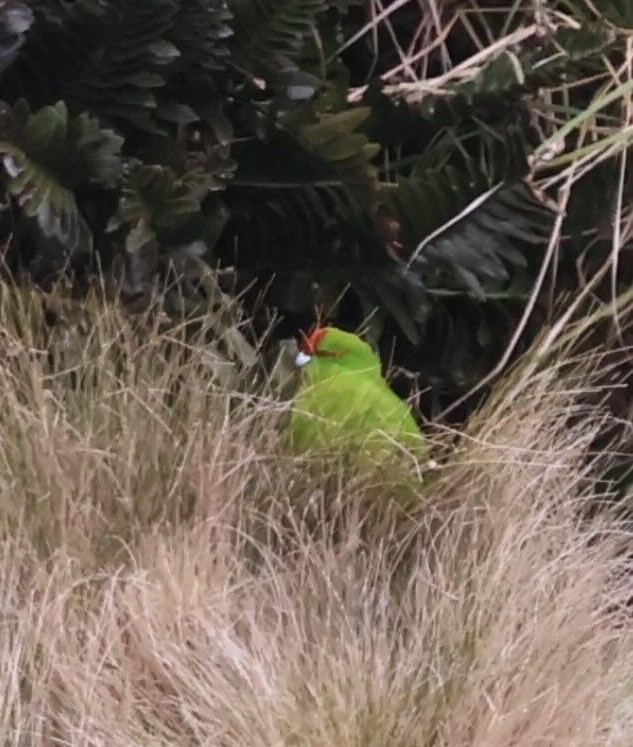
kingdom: Animalia
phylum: Chordata
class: Aves
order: Psittaciformes
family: Psittacidae
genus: Cyanoramphus
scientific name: Cyanoramphus novaezelandiae
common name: Red-fronted parakeet
